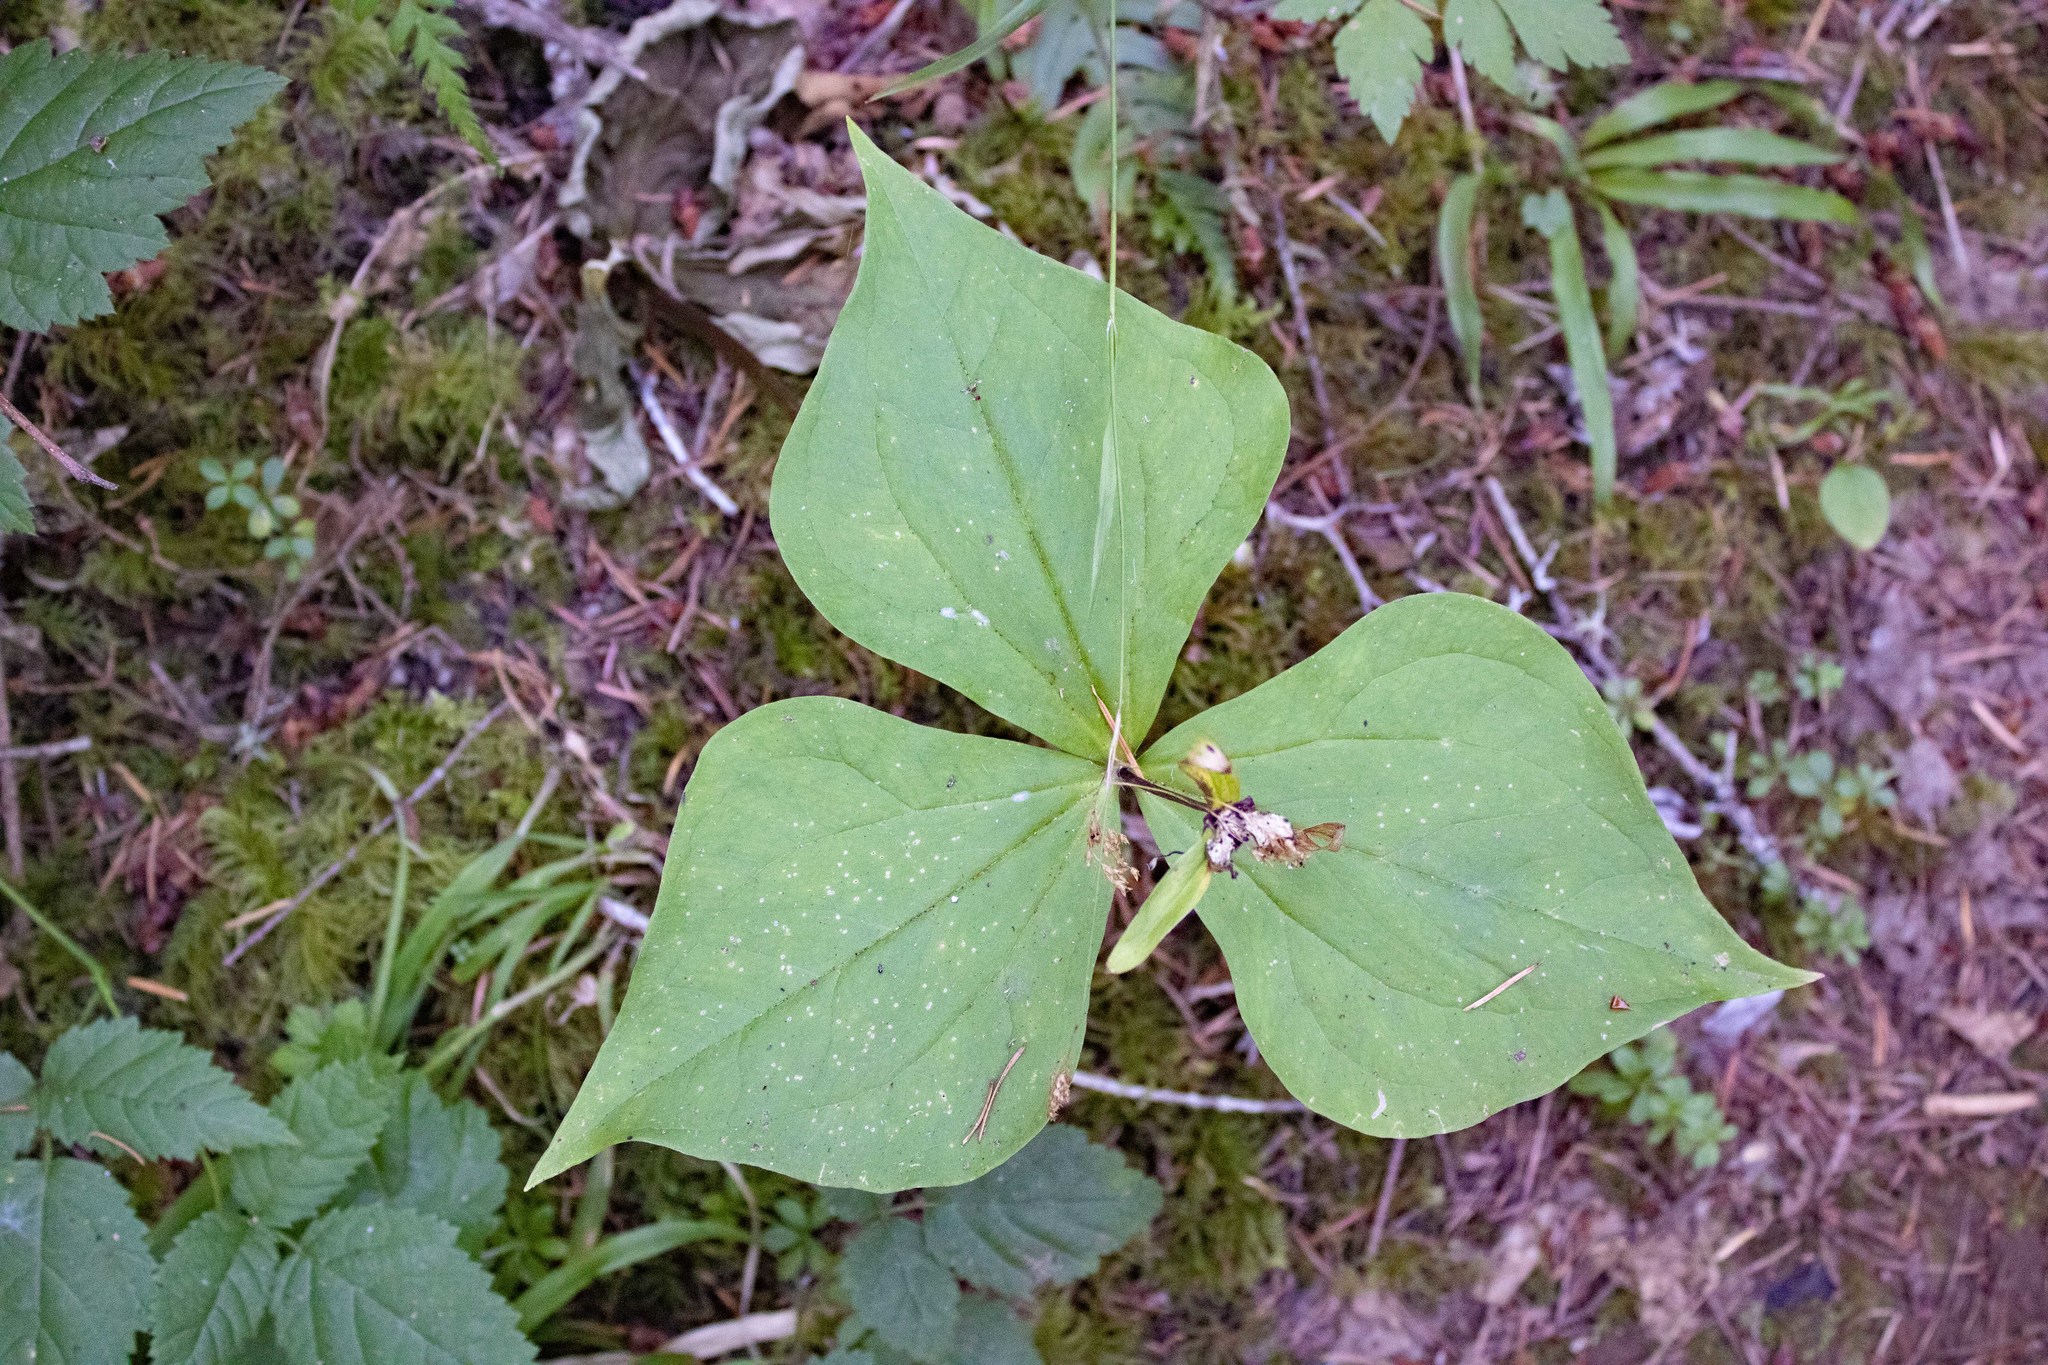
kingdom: Plantae
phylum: Tracheophyta
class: Liliopsida
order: Liliales
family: Melanthiaceae
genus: Trillium
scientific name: Trillium ovatum
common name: Pacific trillium
